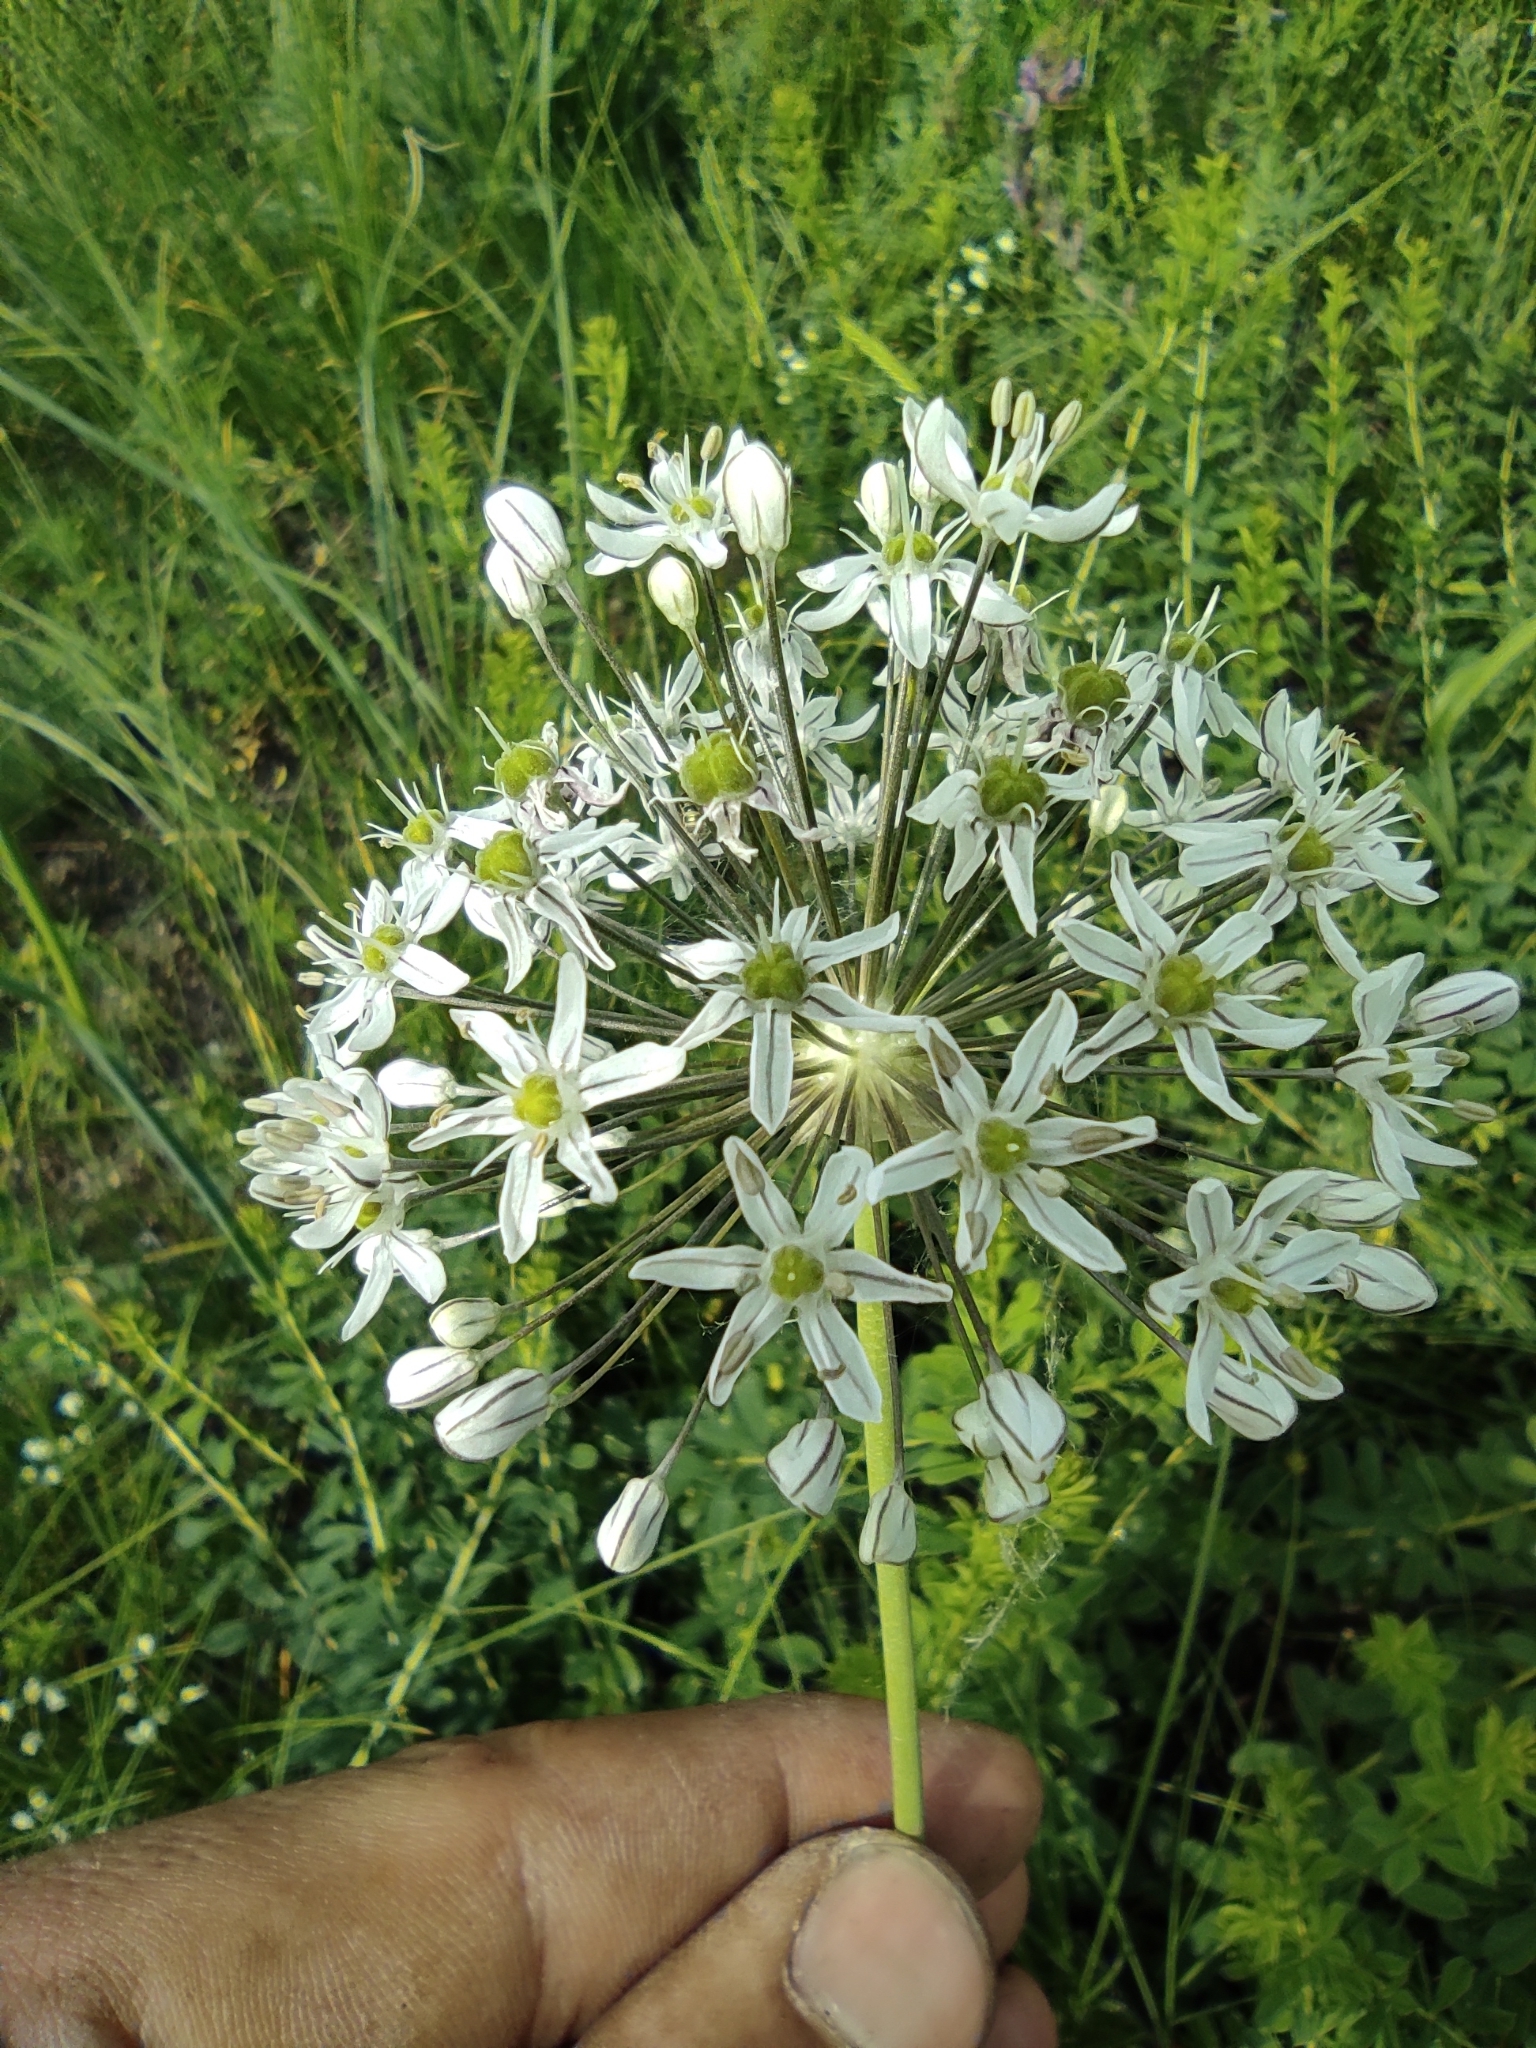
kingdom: Plantae
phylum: Tracheophyta
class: Liliopsida
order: Asparagales
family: Amaryllidaceae
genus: Allium
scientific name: Allium decipiens
